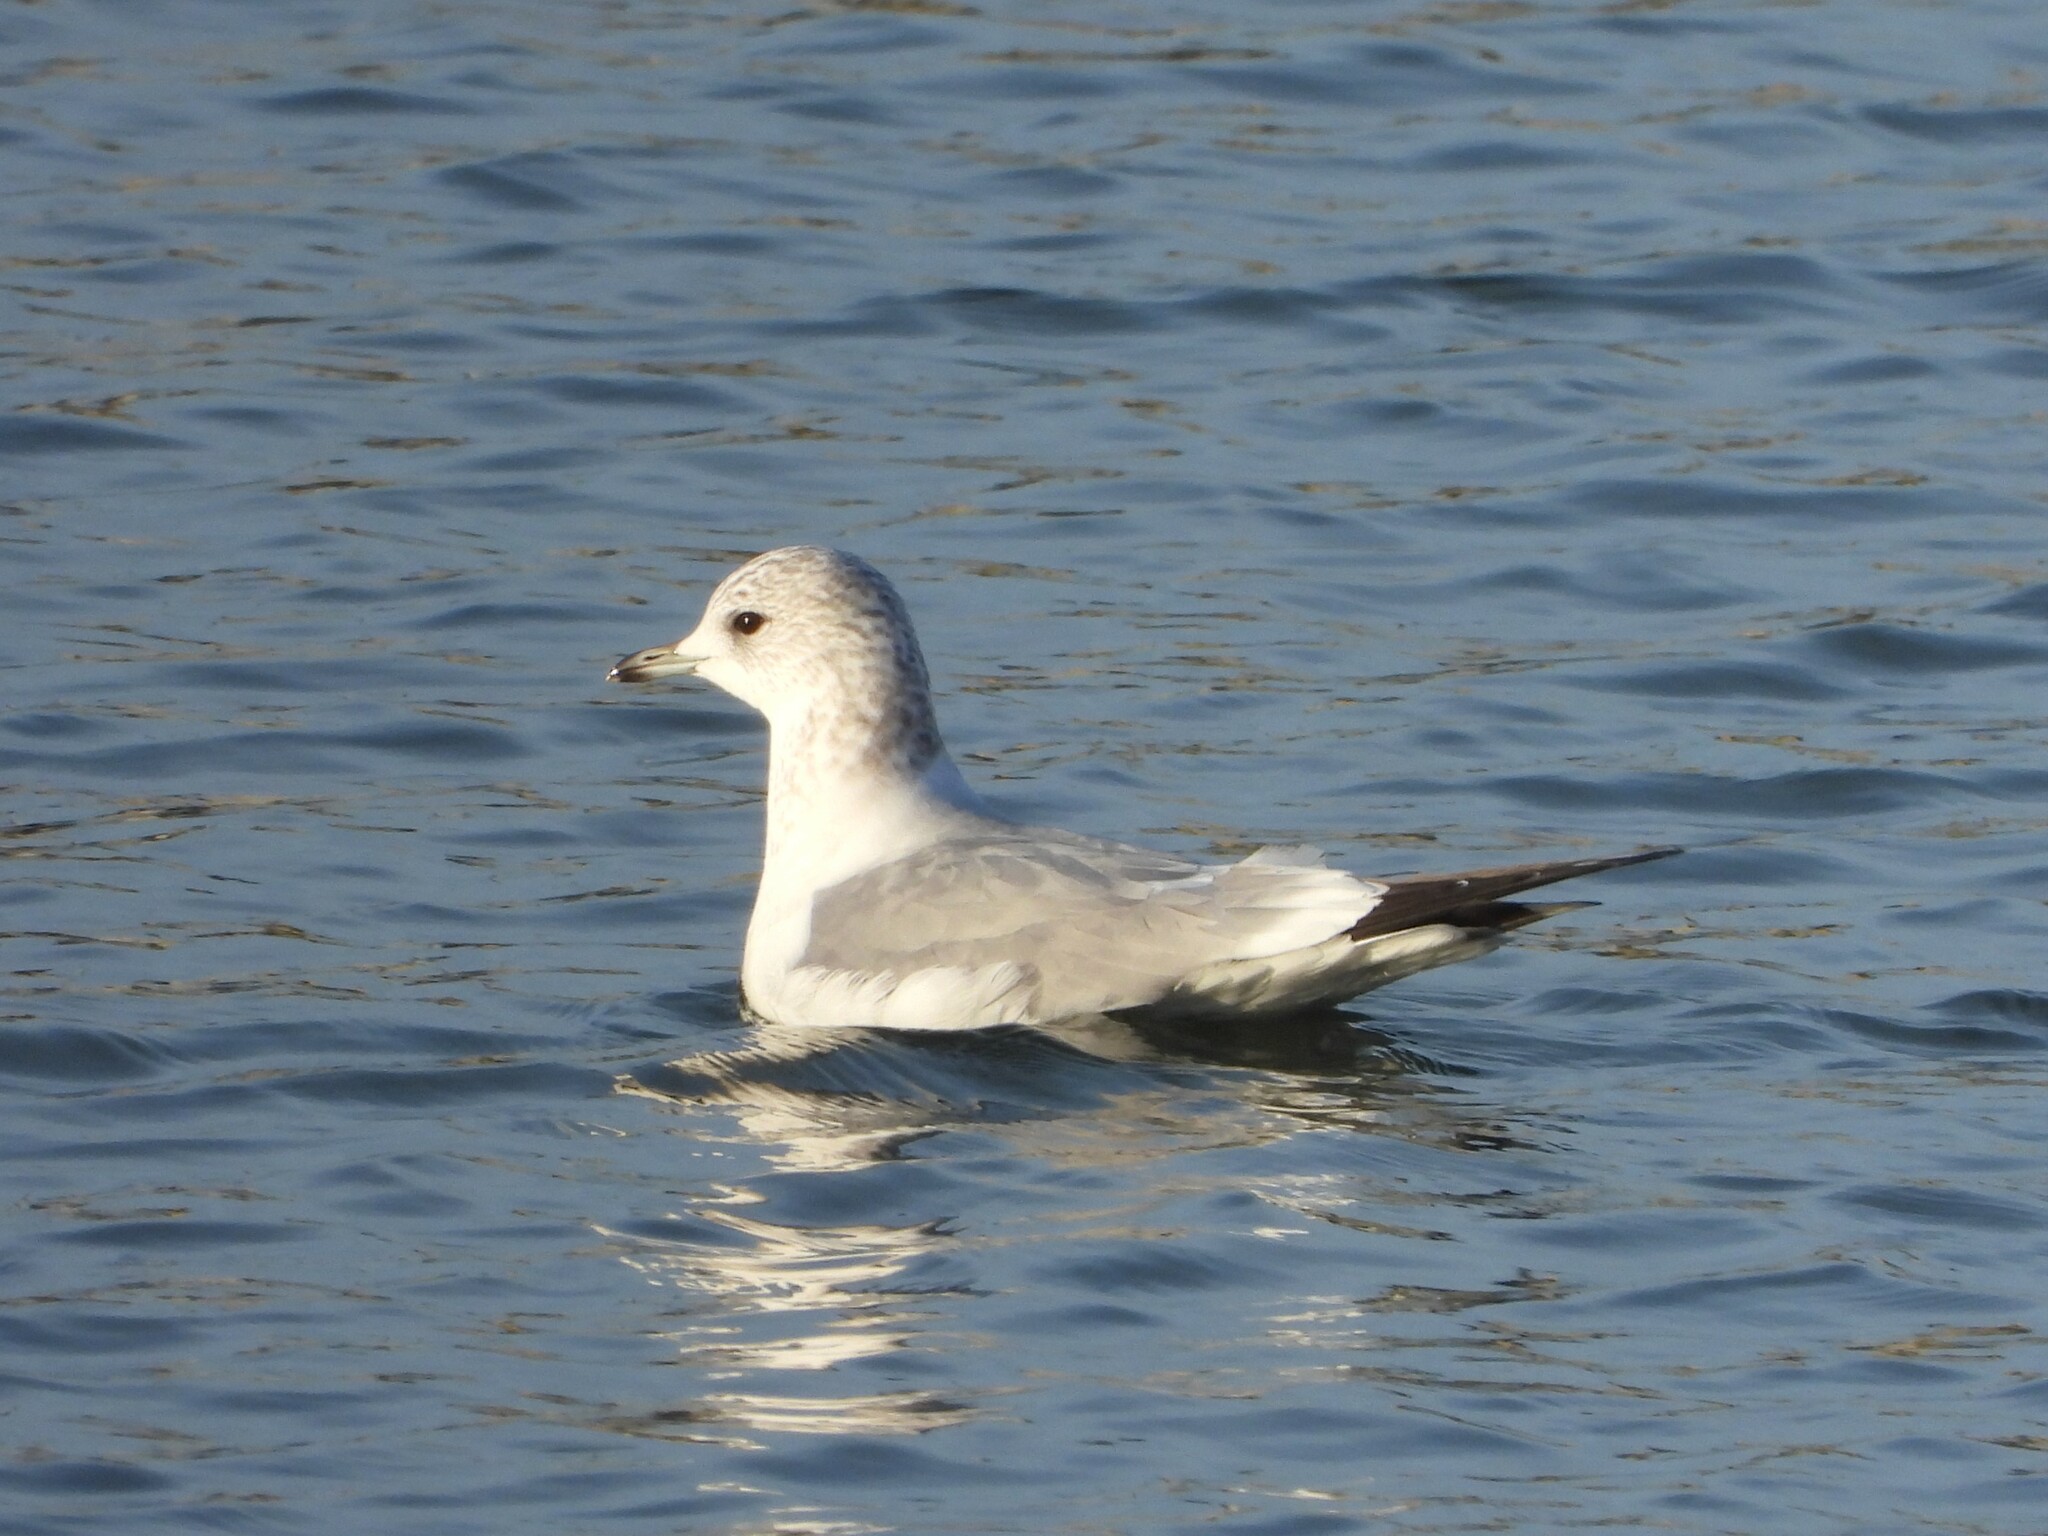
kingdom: Animalia
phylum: Chordata
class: Aves
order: Charadriiformes
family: Laridae
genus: Larus
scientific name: Larus canus
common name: Mew gull
